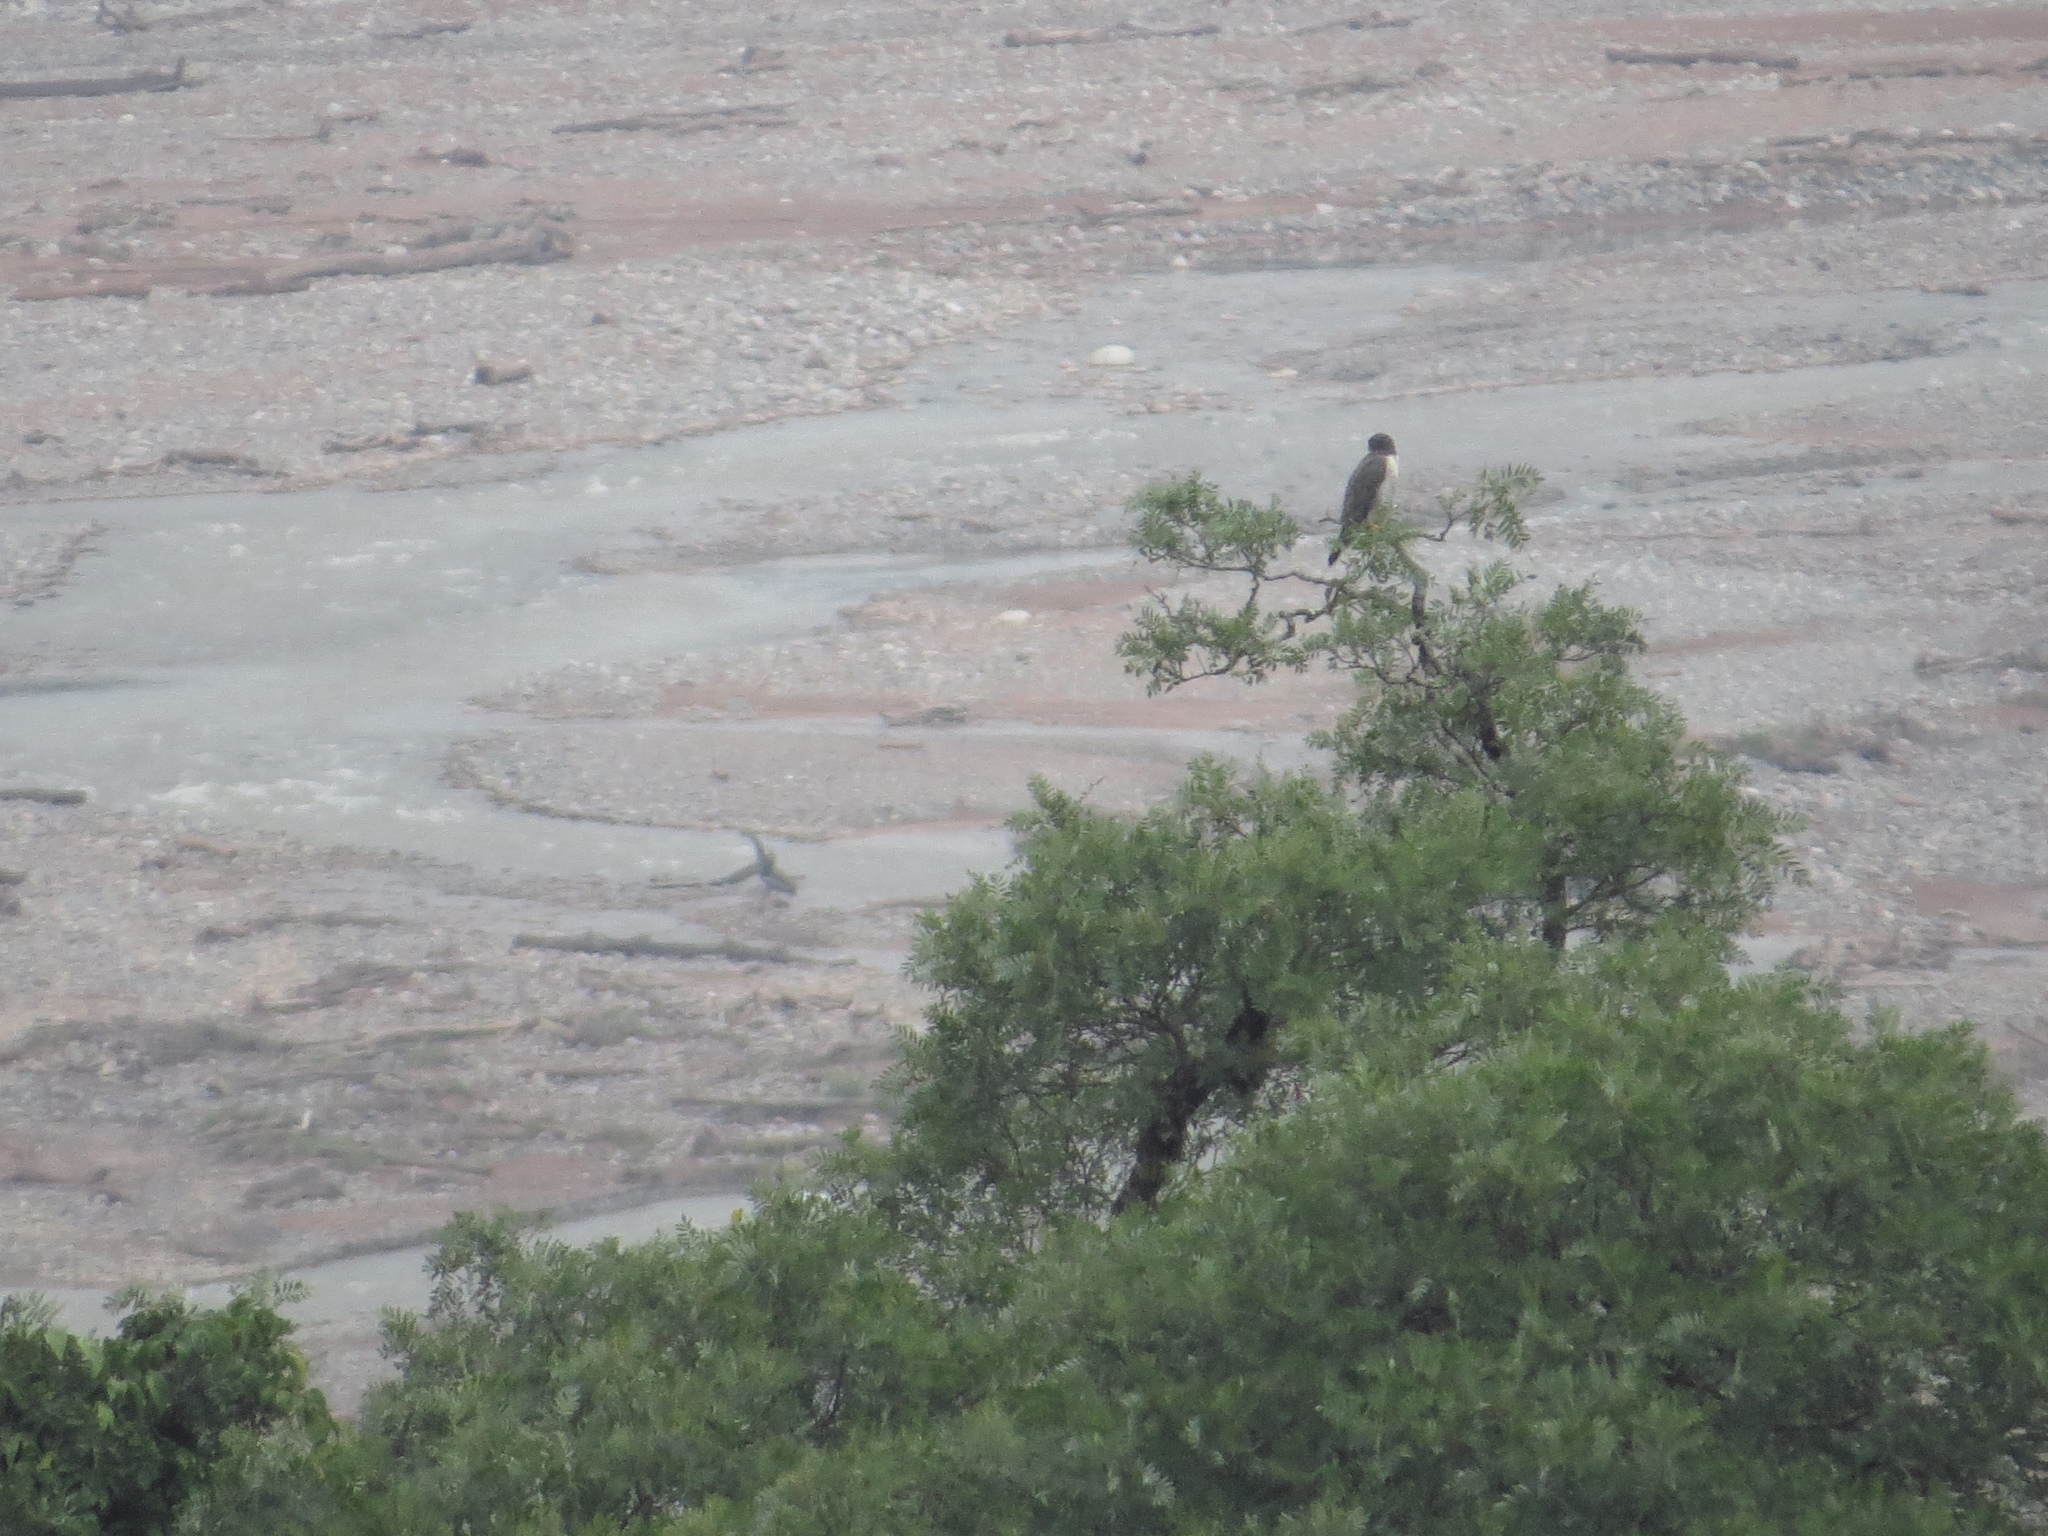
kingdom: Animalia
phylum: Chordata
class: Aves
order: Falconiformes
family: Falconidae
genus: Falco
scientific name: Falco peregrinus
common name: Peregrine falcon
